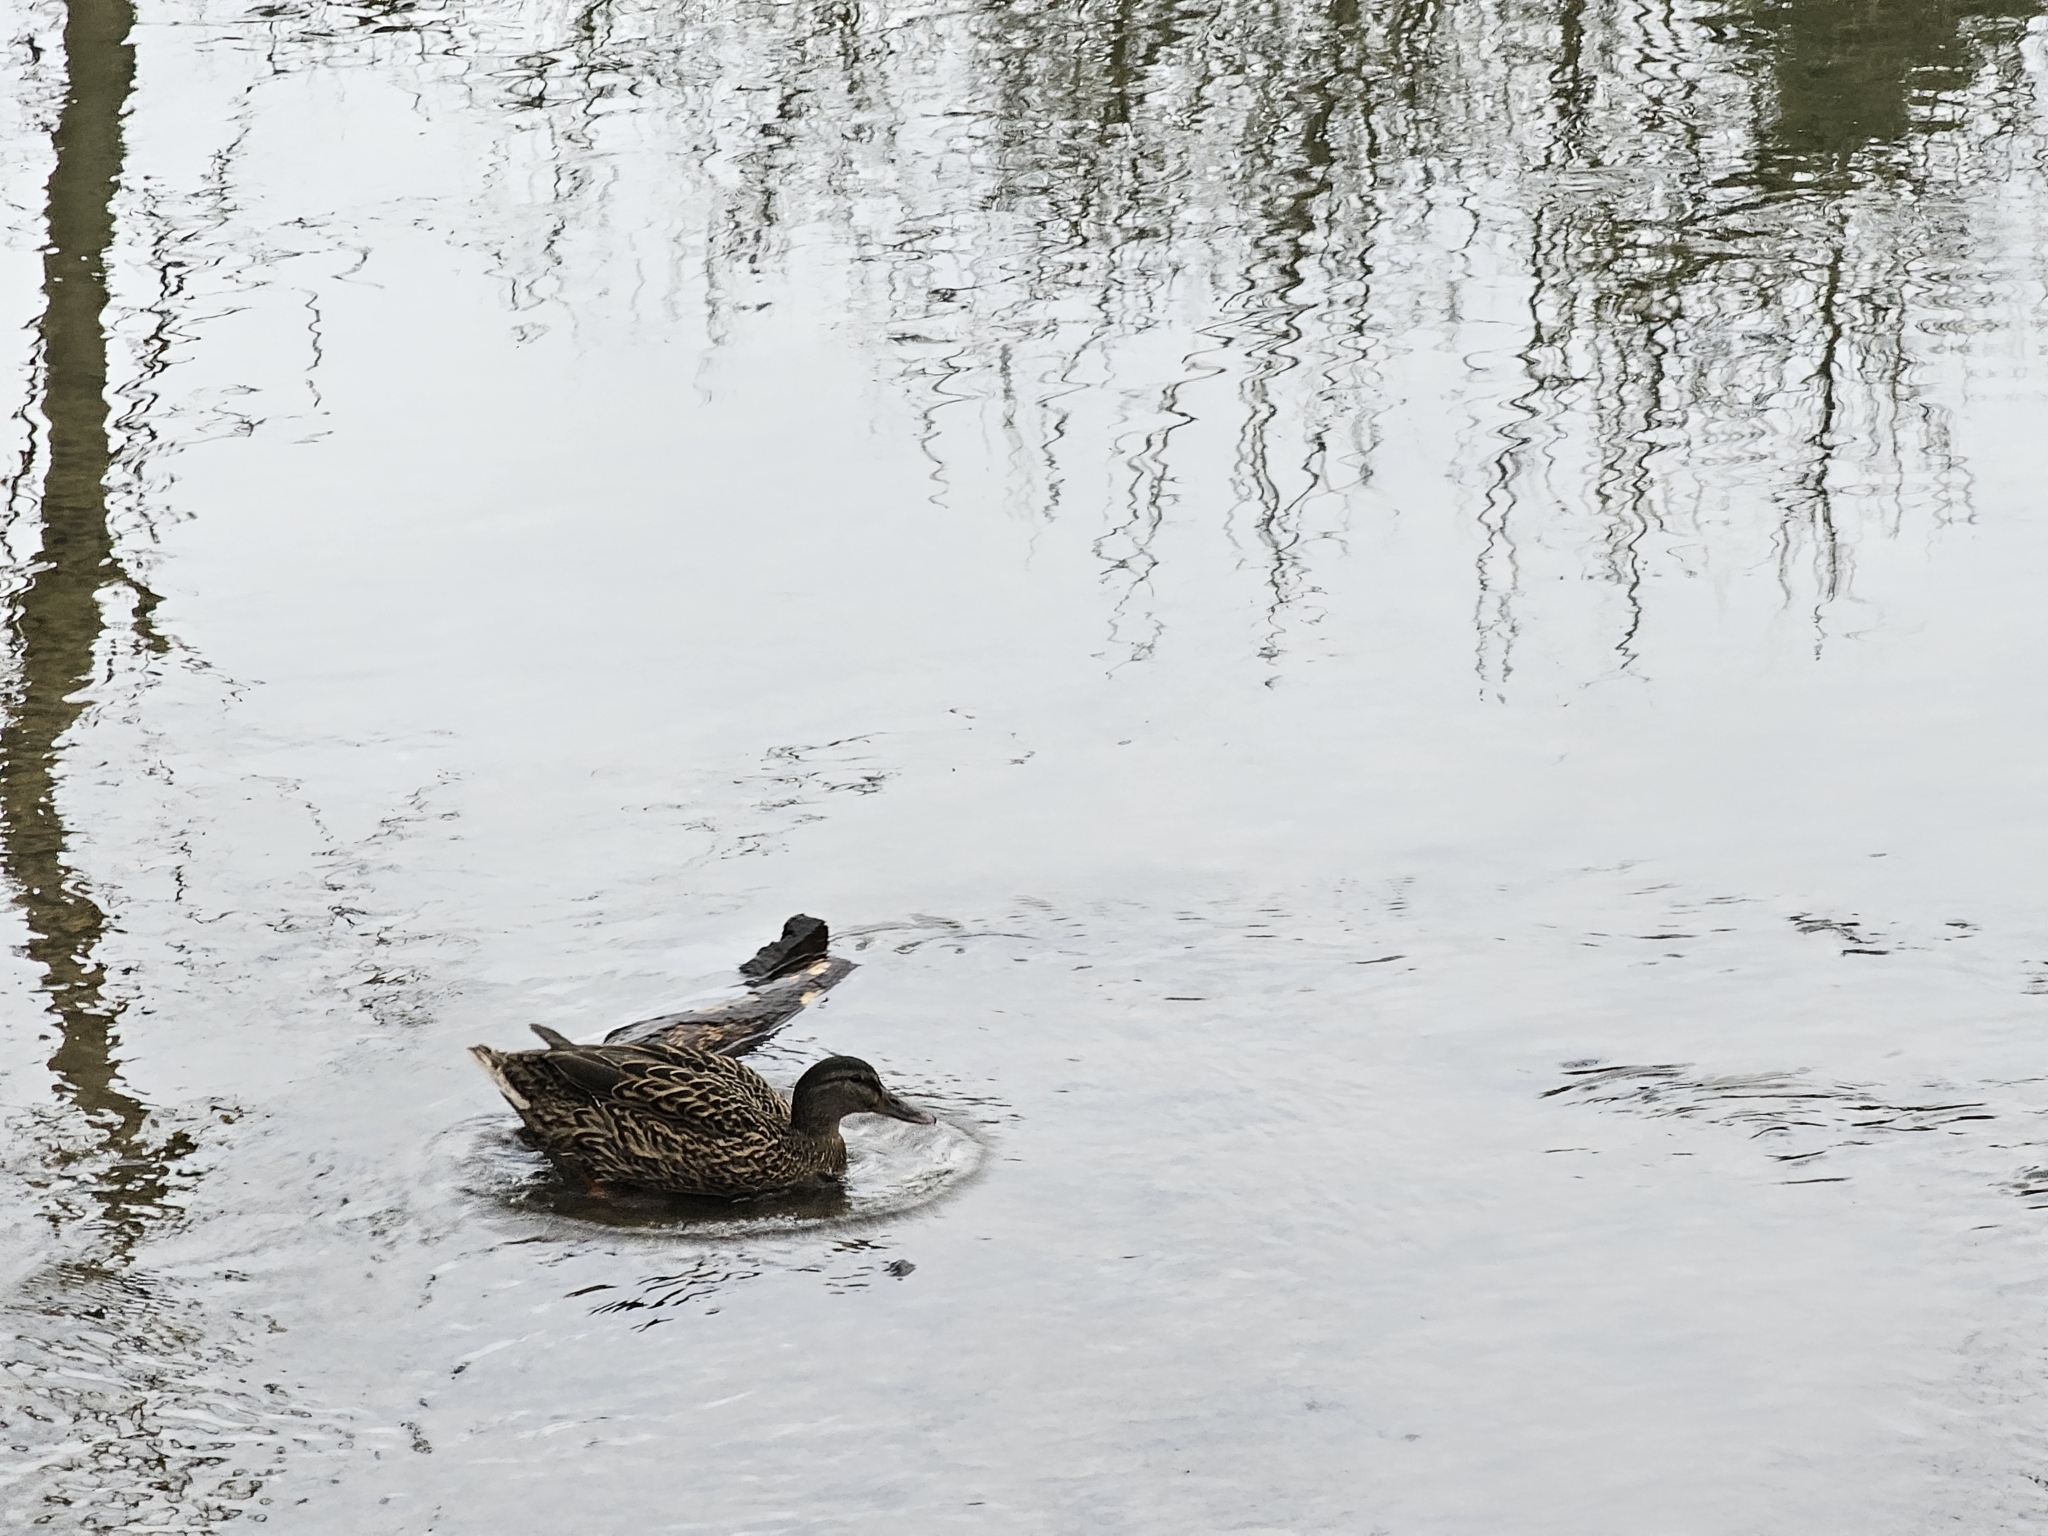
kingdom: Animalia
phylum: Chordata
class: Aves
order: Anseriformes
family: Anatidae
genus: Anas
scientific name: Anas platyrhynchos
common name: Mallard
